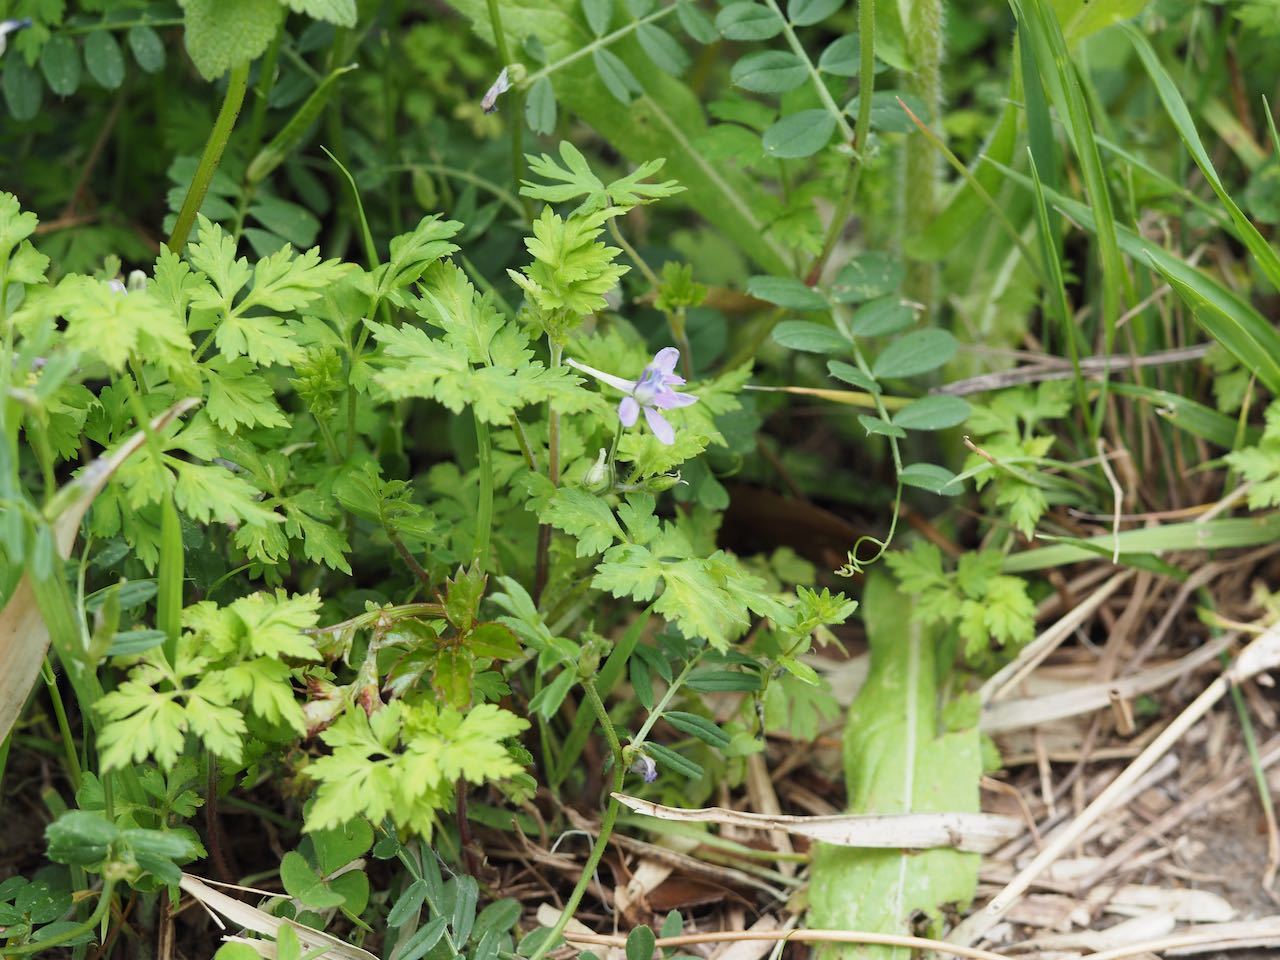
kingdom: Plantae
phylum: Tracheophyta
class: Magnoliopsida
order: Ranunculales
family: Ranunculaceae
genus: Delphinium
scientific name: Delphinium anthriscifolium
